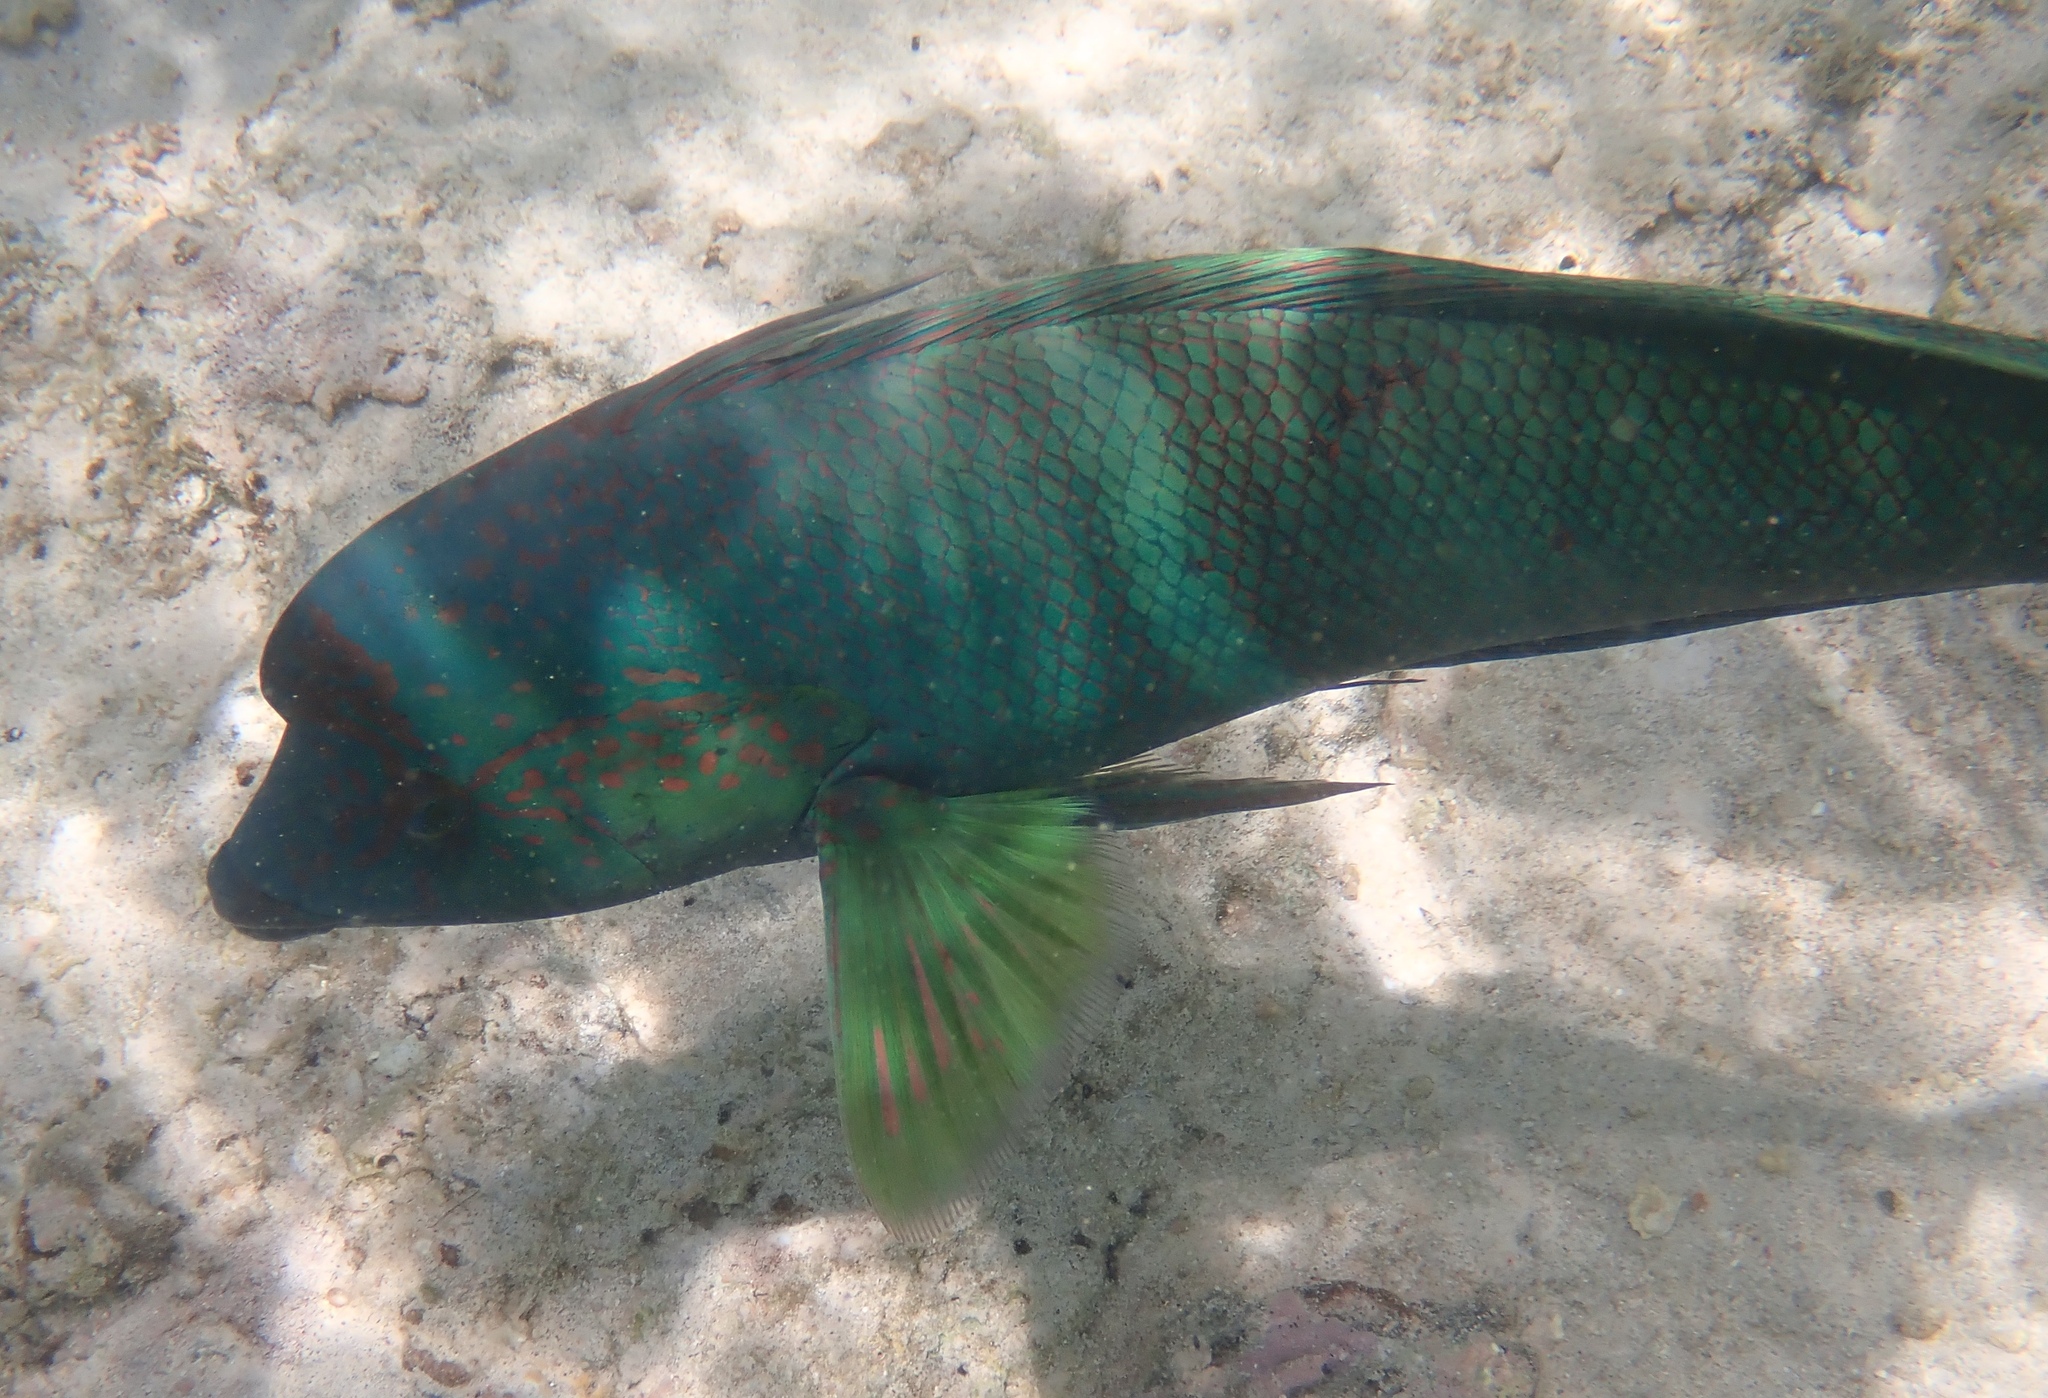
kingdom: Animalia
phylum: Chordata
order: Perciformes
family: Labridae
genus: Coris
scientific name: Coris aygula
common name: Clown coris
